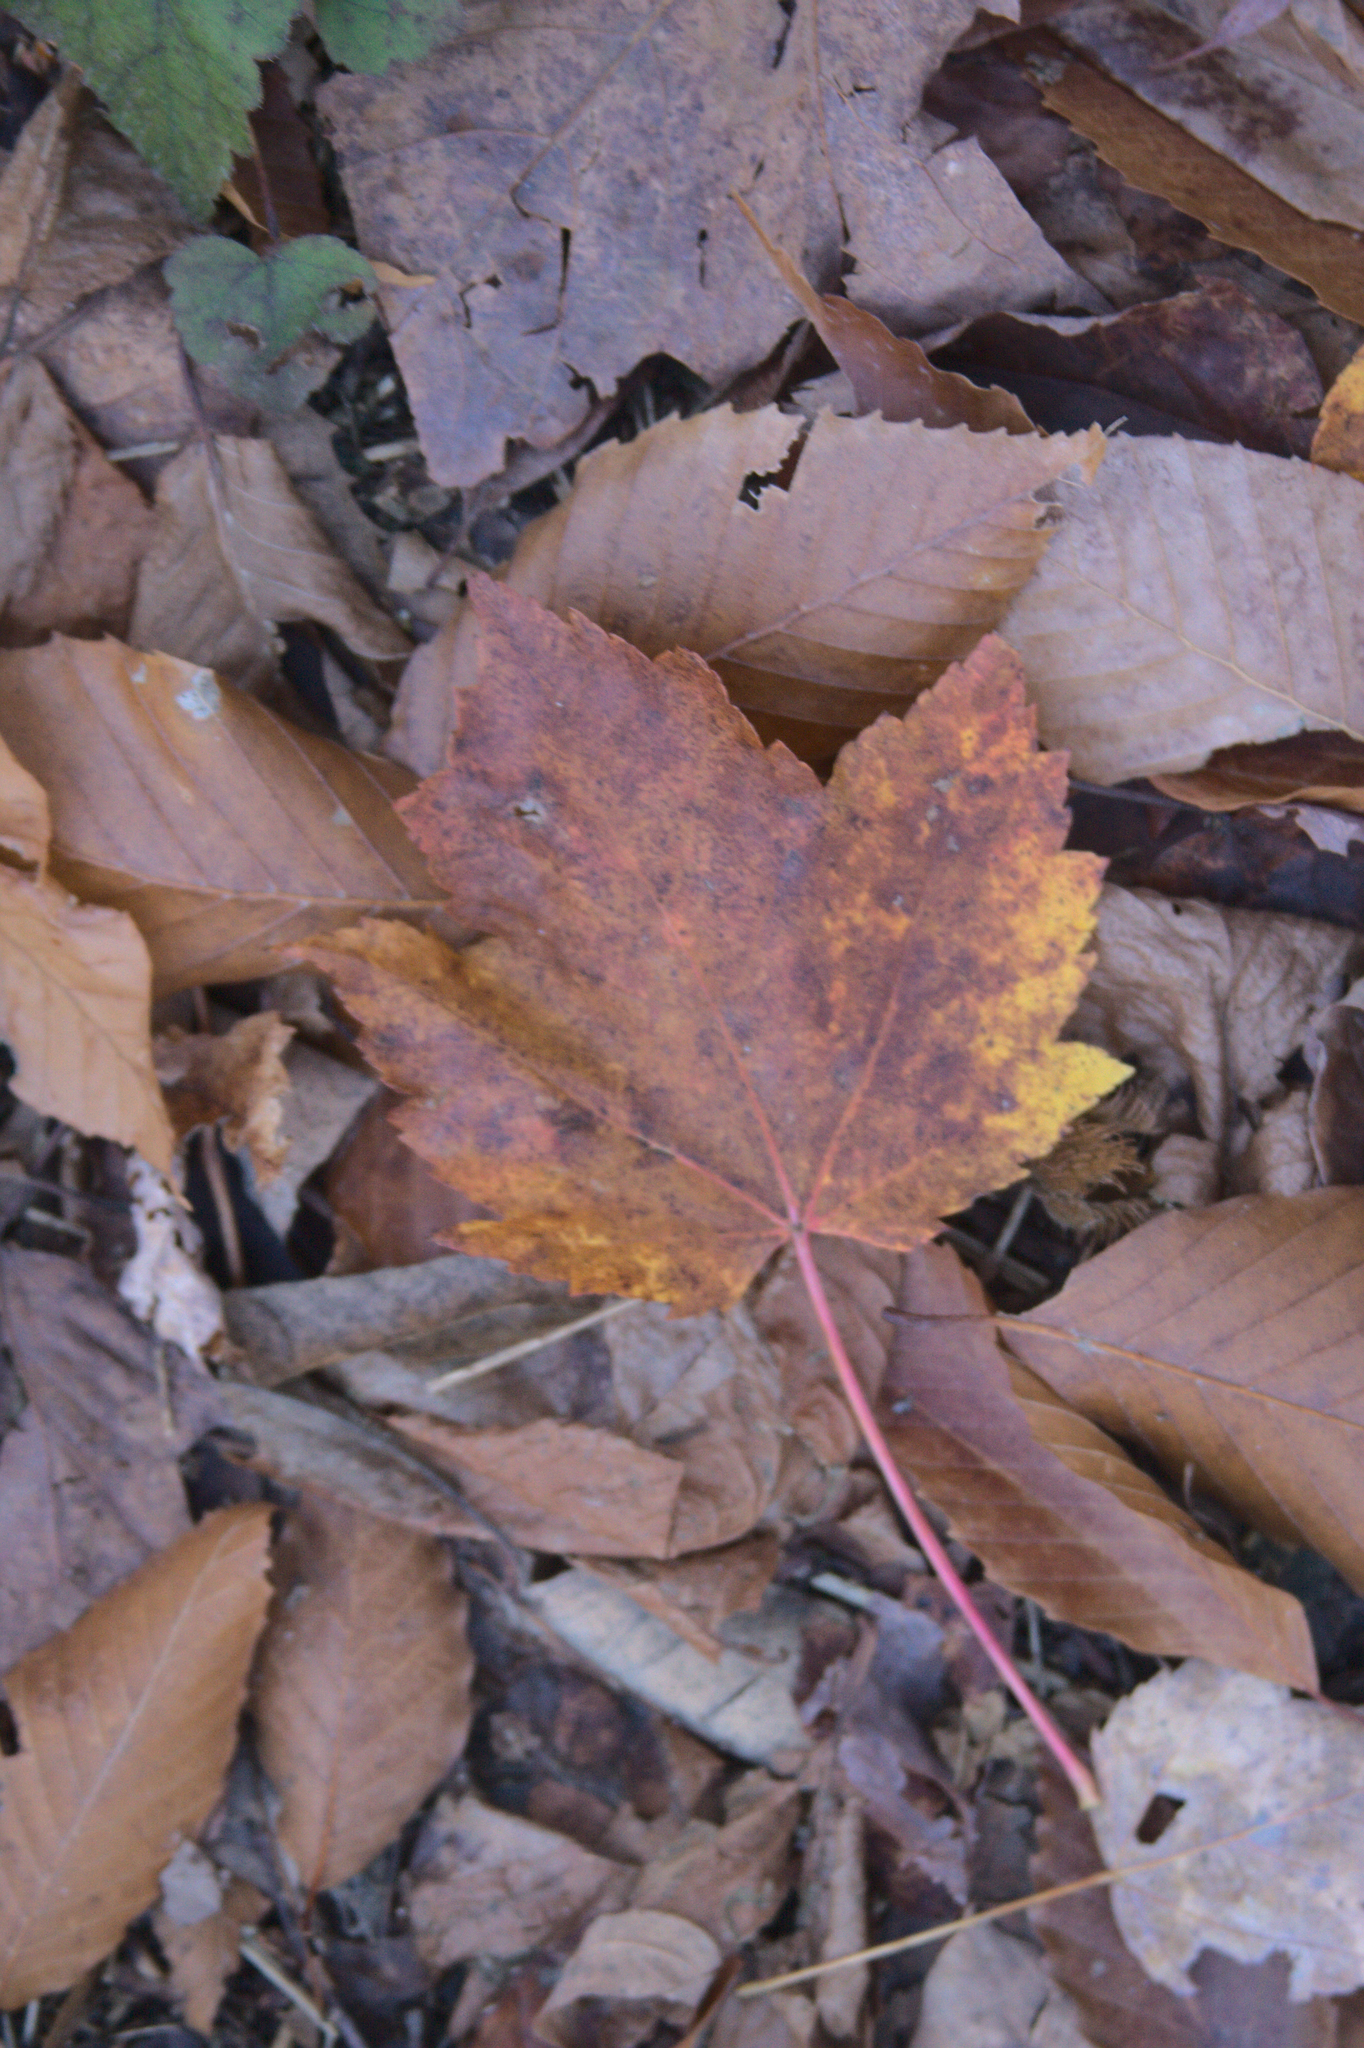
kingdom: Plantae
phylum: Tracheophyta
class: Magnoliopsida
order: Sapindales
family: Sapindaceae
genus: Acer
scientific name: Acer rubrum
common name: Red maple
